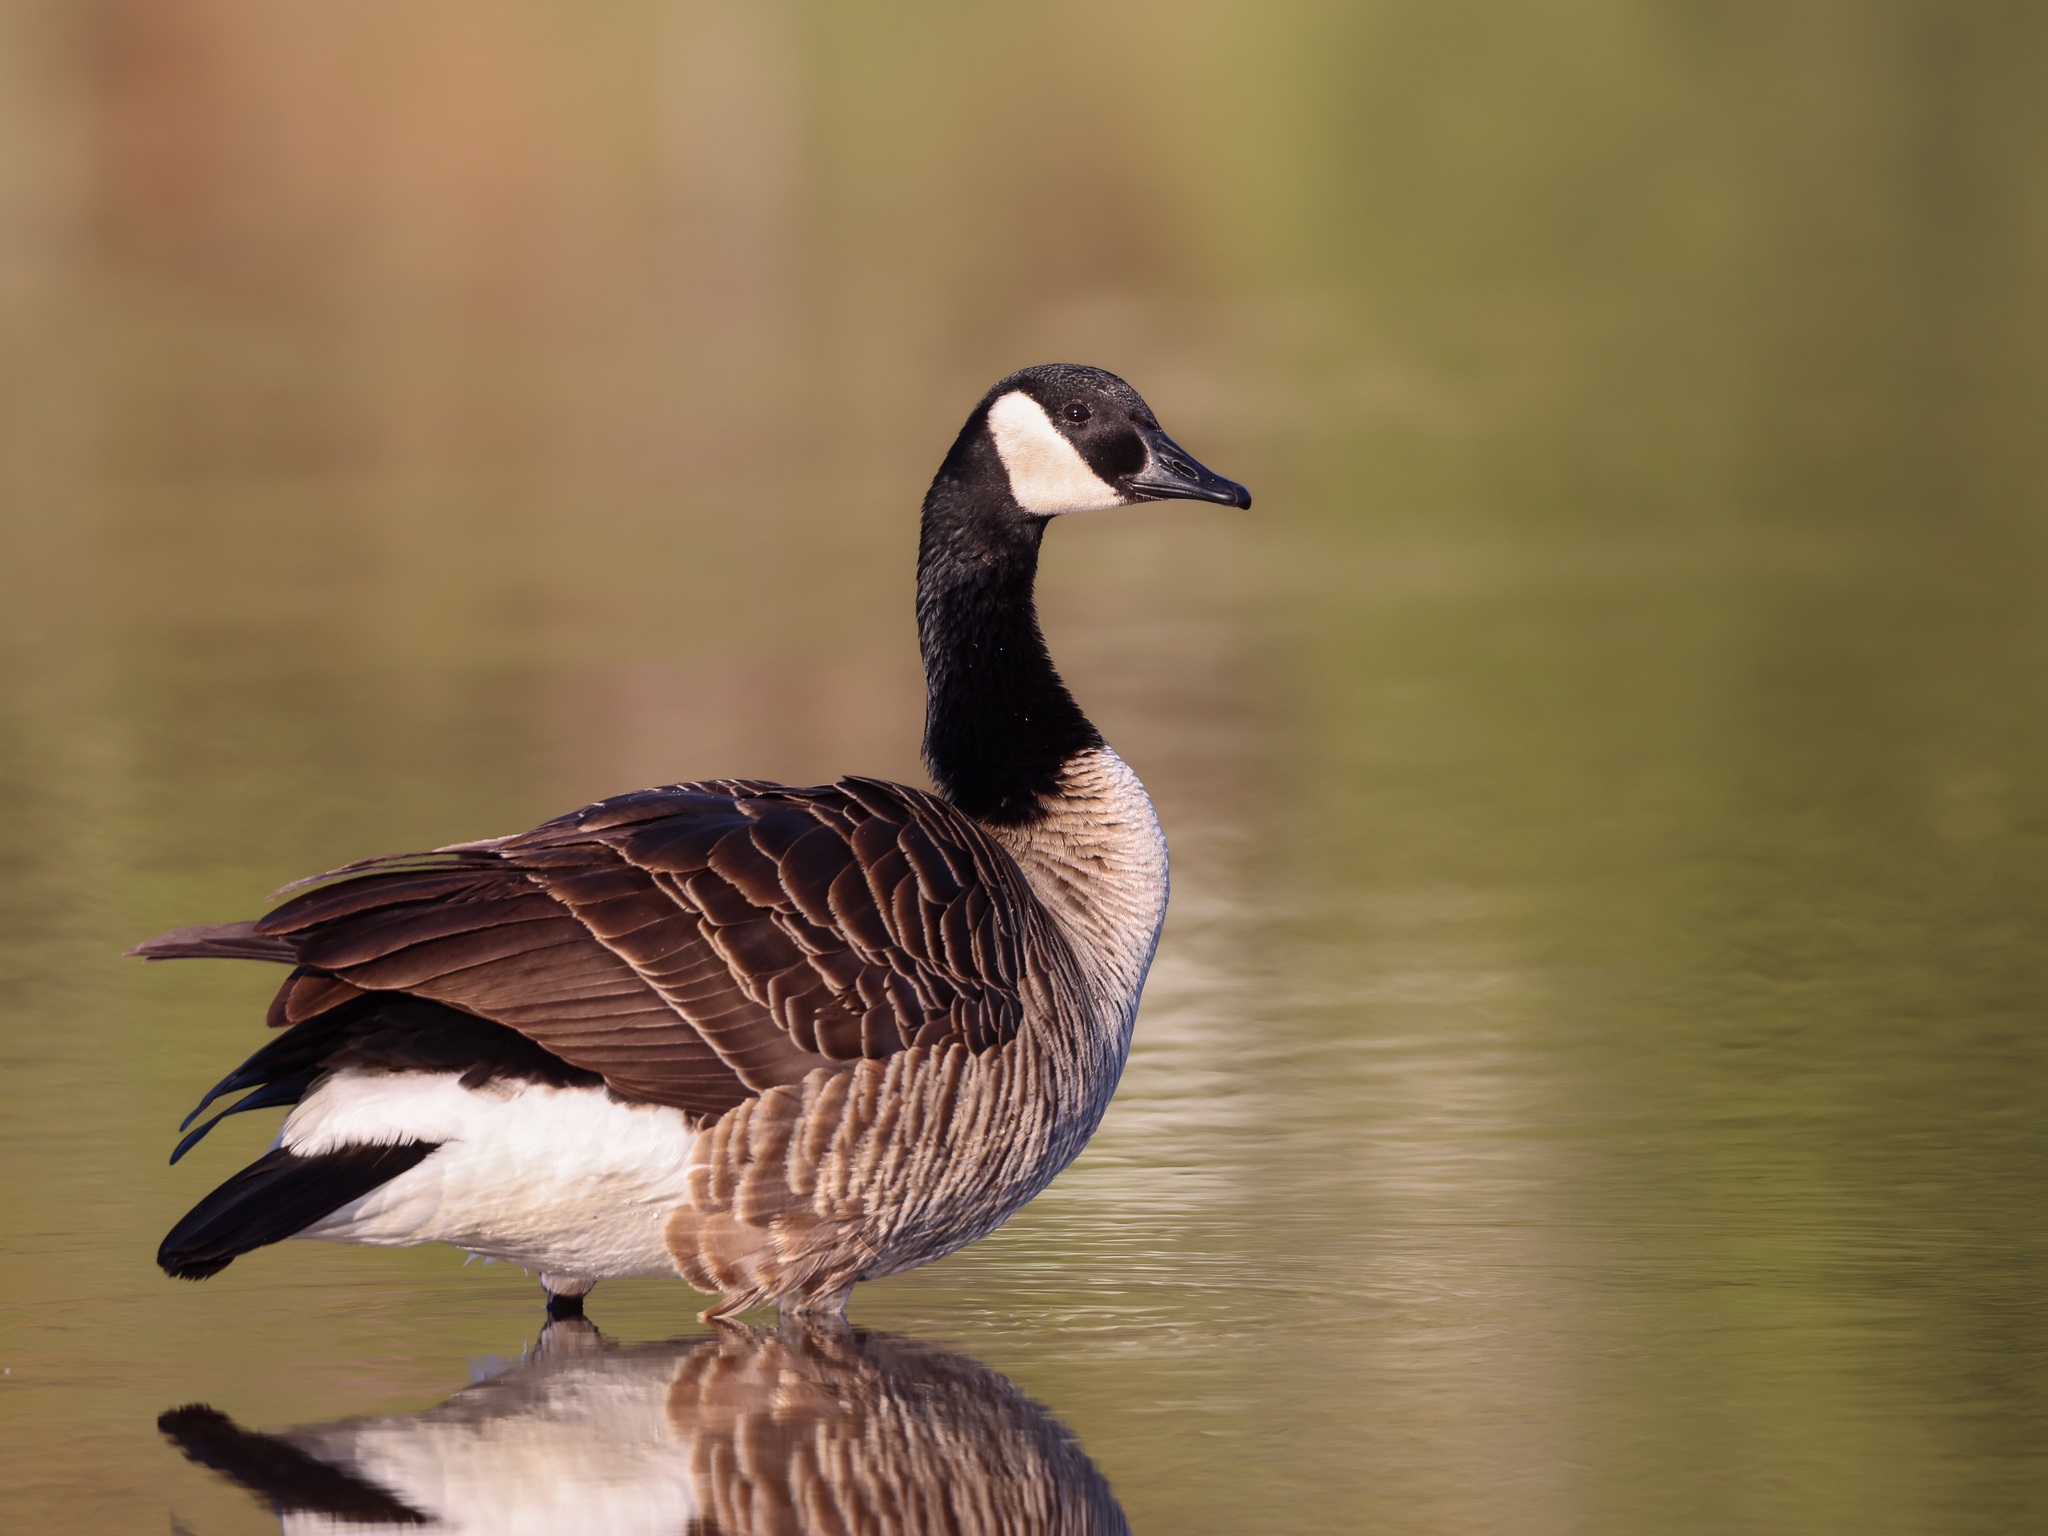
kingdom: Animalia
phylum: Chordata
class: Aves
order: Anseriformes
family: Anatidae
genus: Branta
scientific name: Branta canadensis
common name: Canada goose
